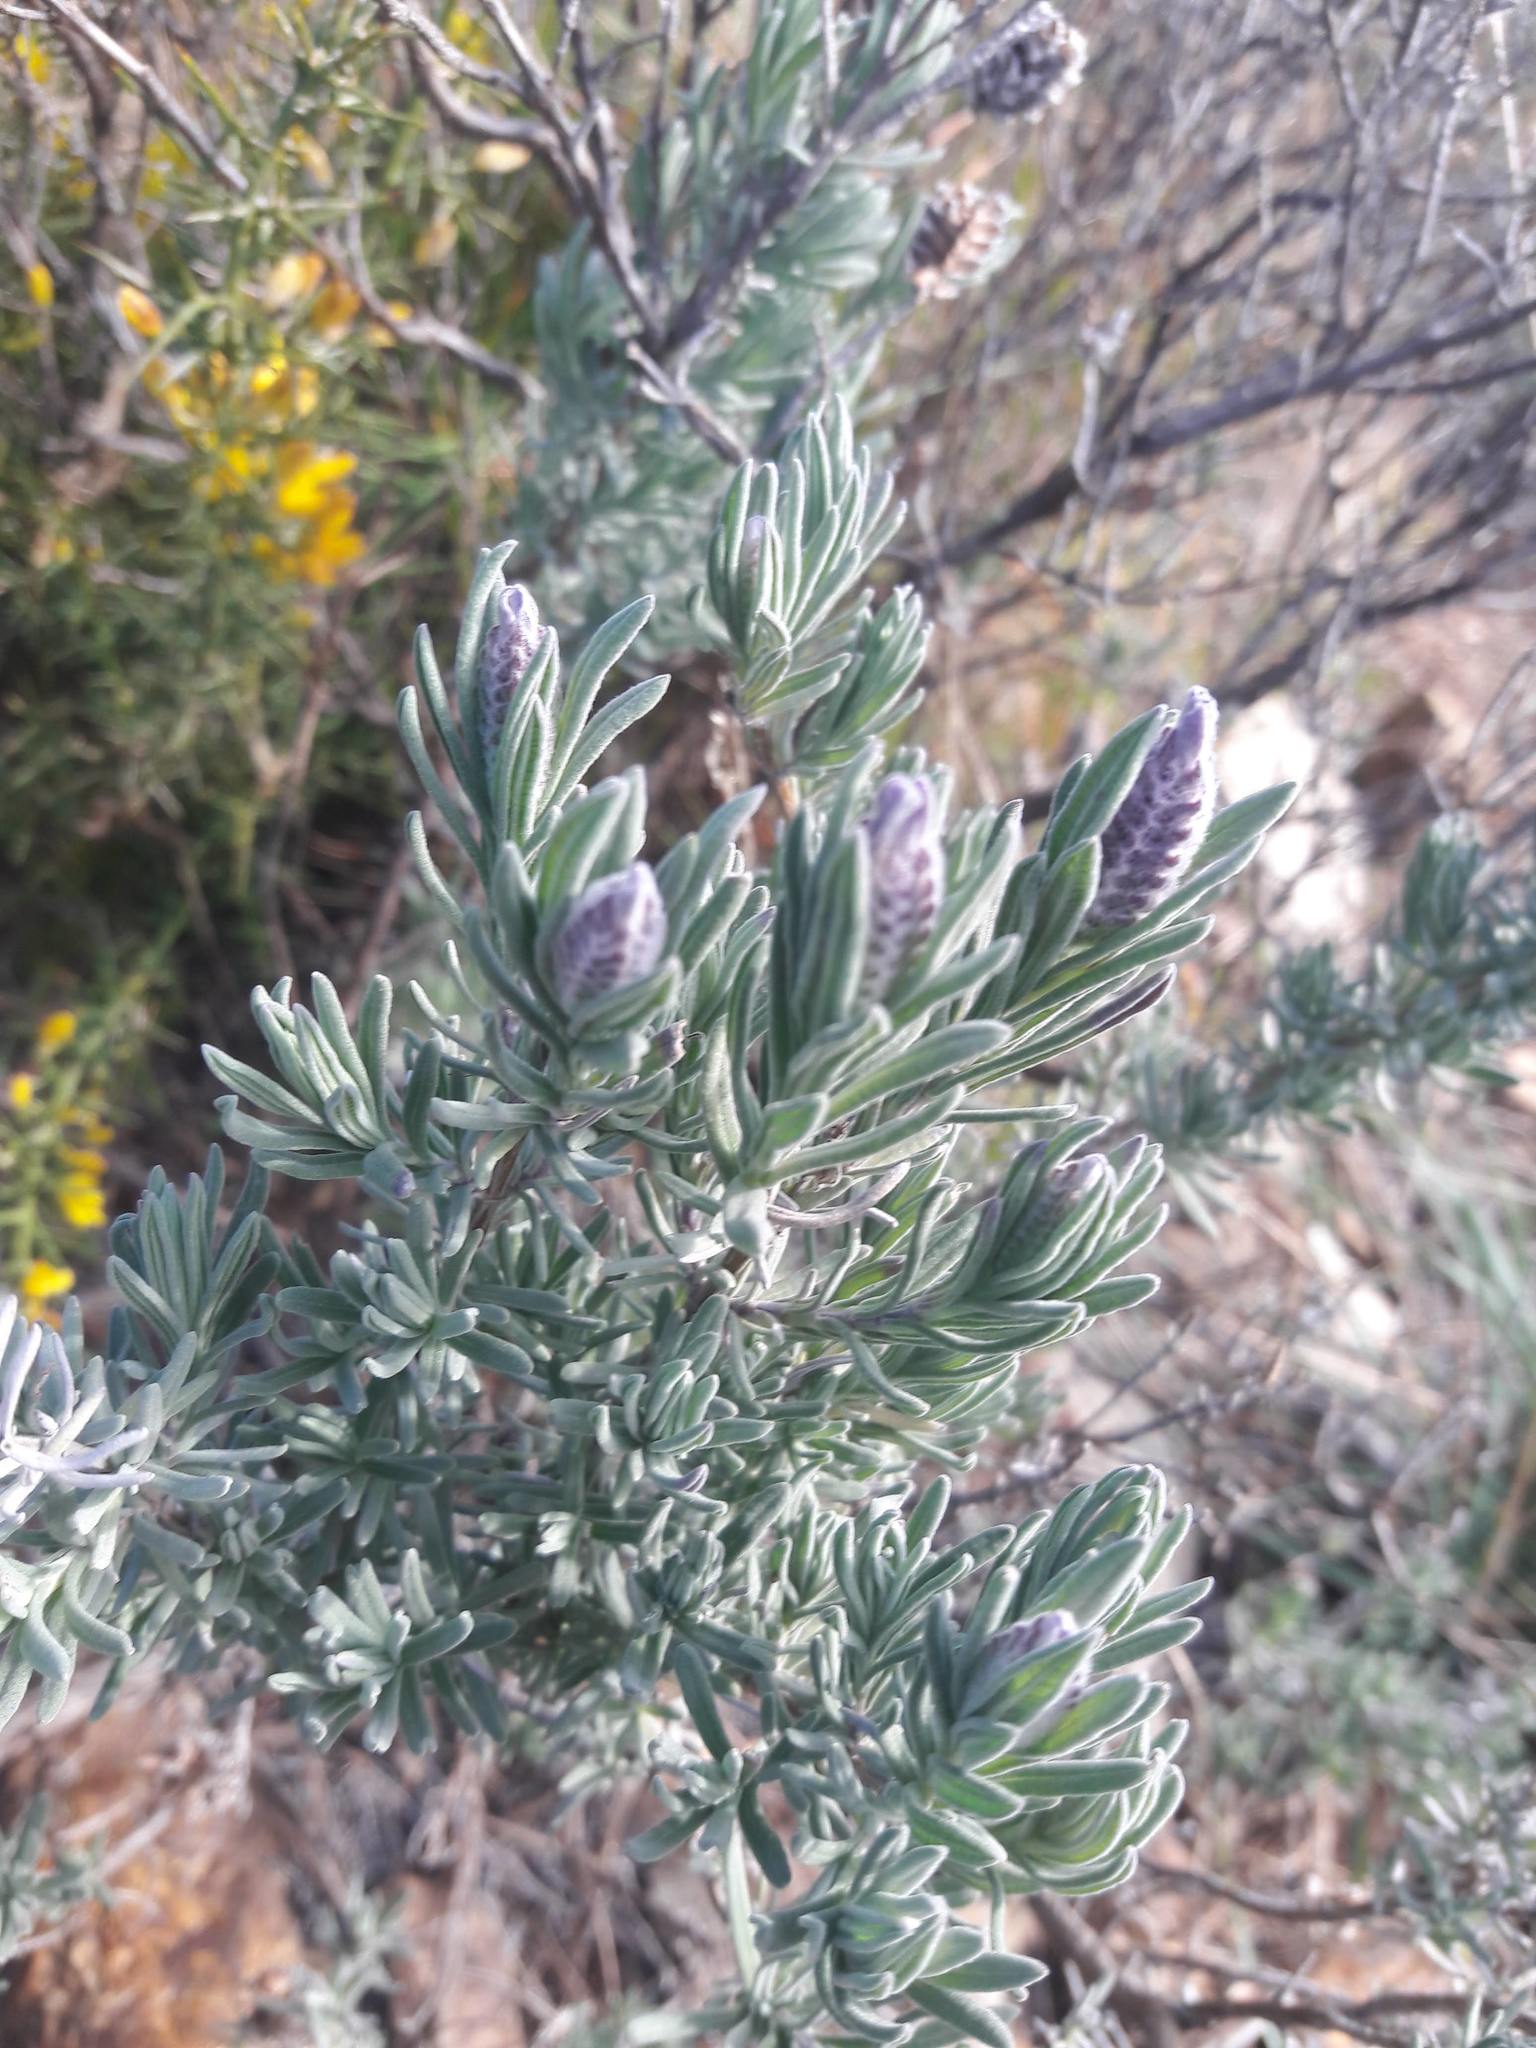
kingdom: Plantae
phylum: Tracheophyta
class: Magnoliopsida
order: Lamiales
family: Lamiaceae
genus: Lavandula
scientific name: Lavandula stoechas
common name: French lavender
